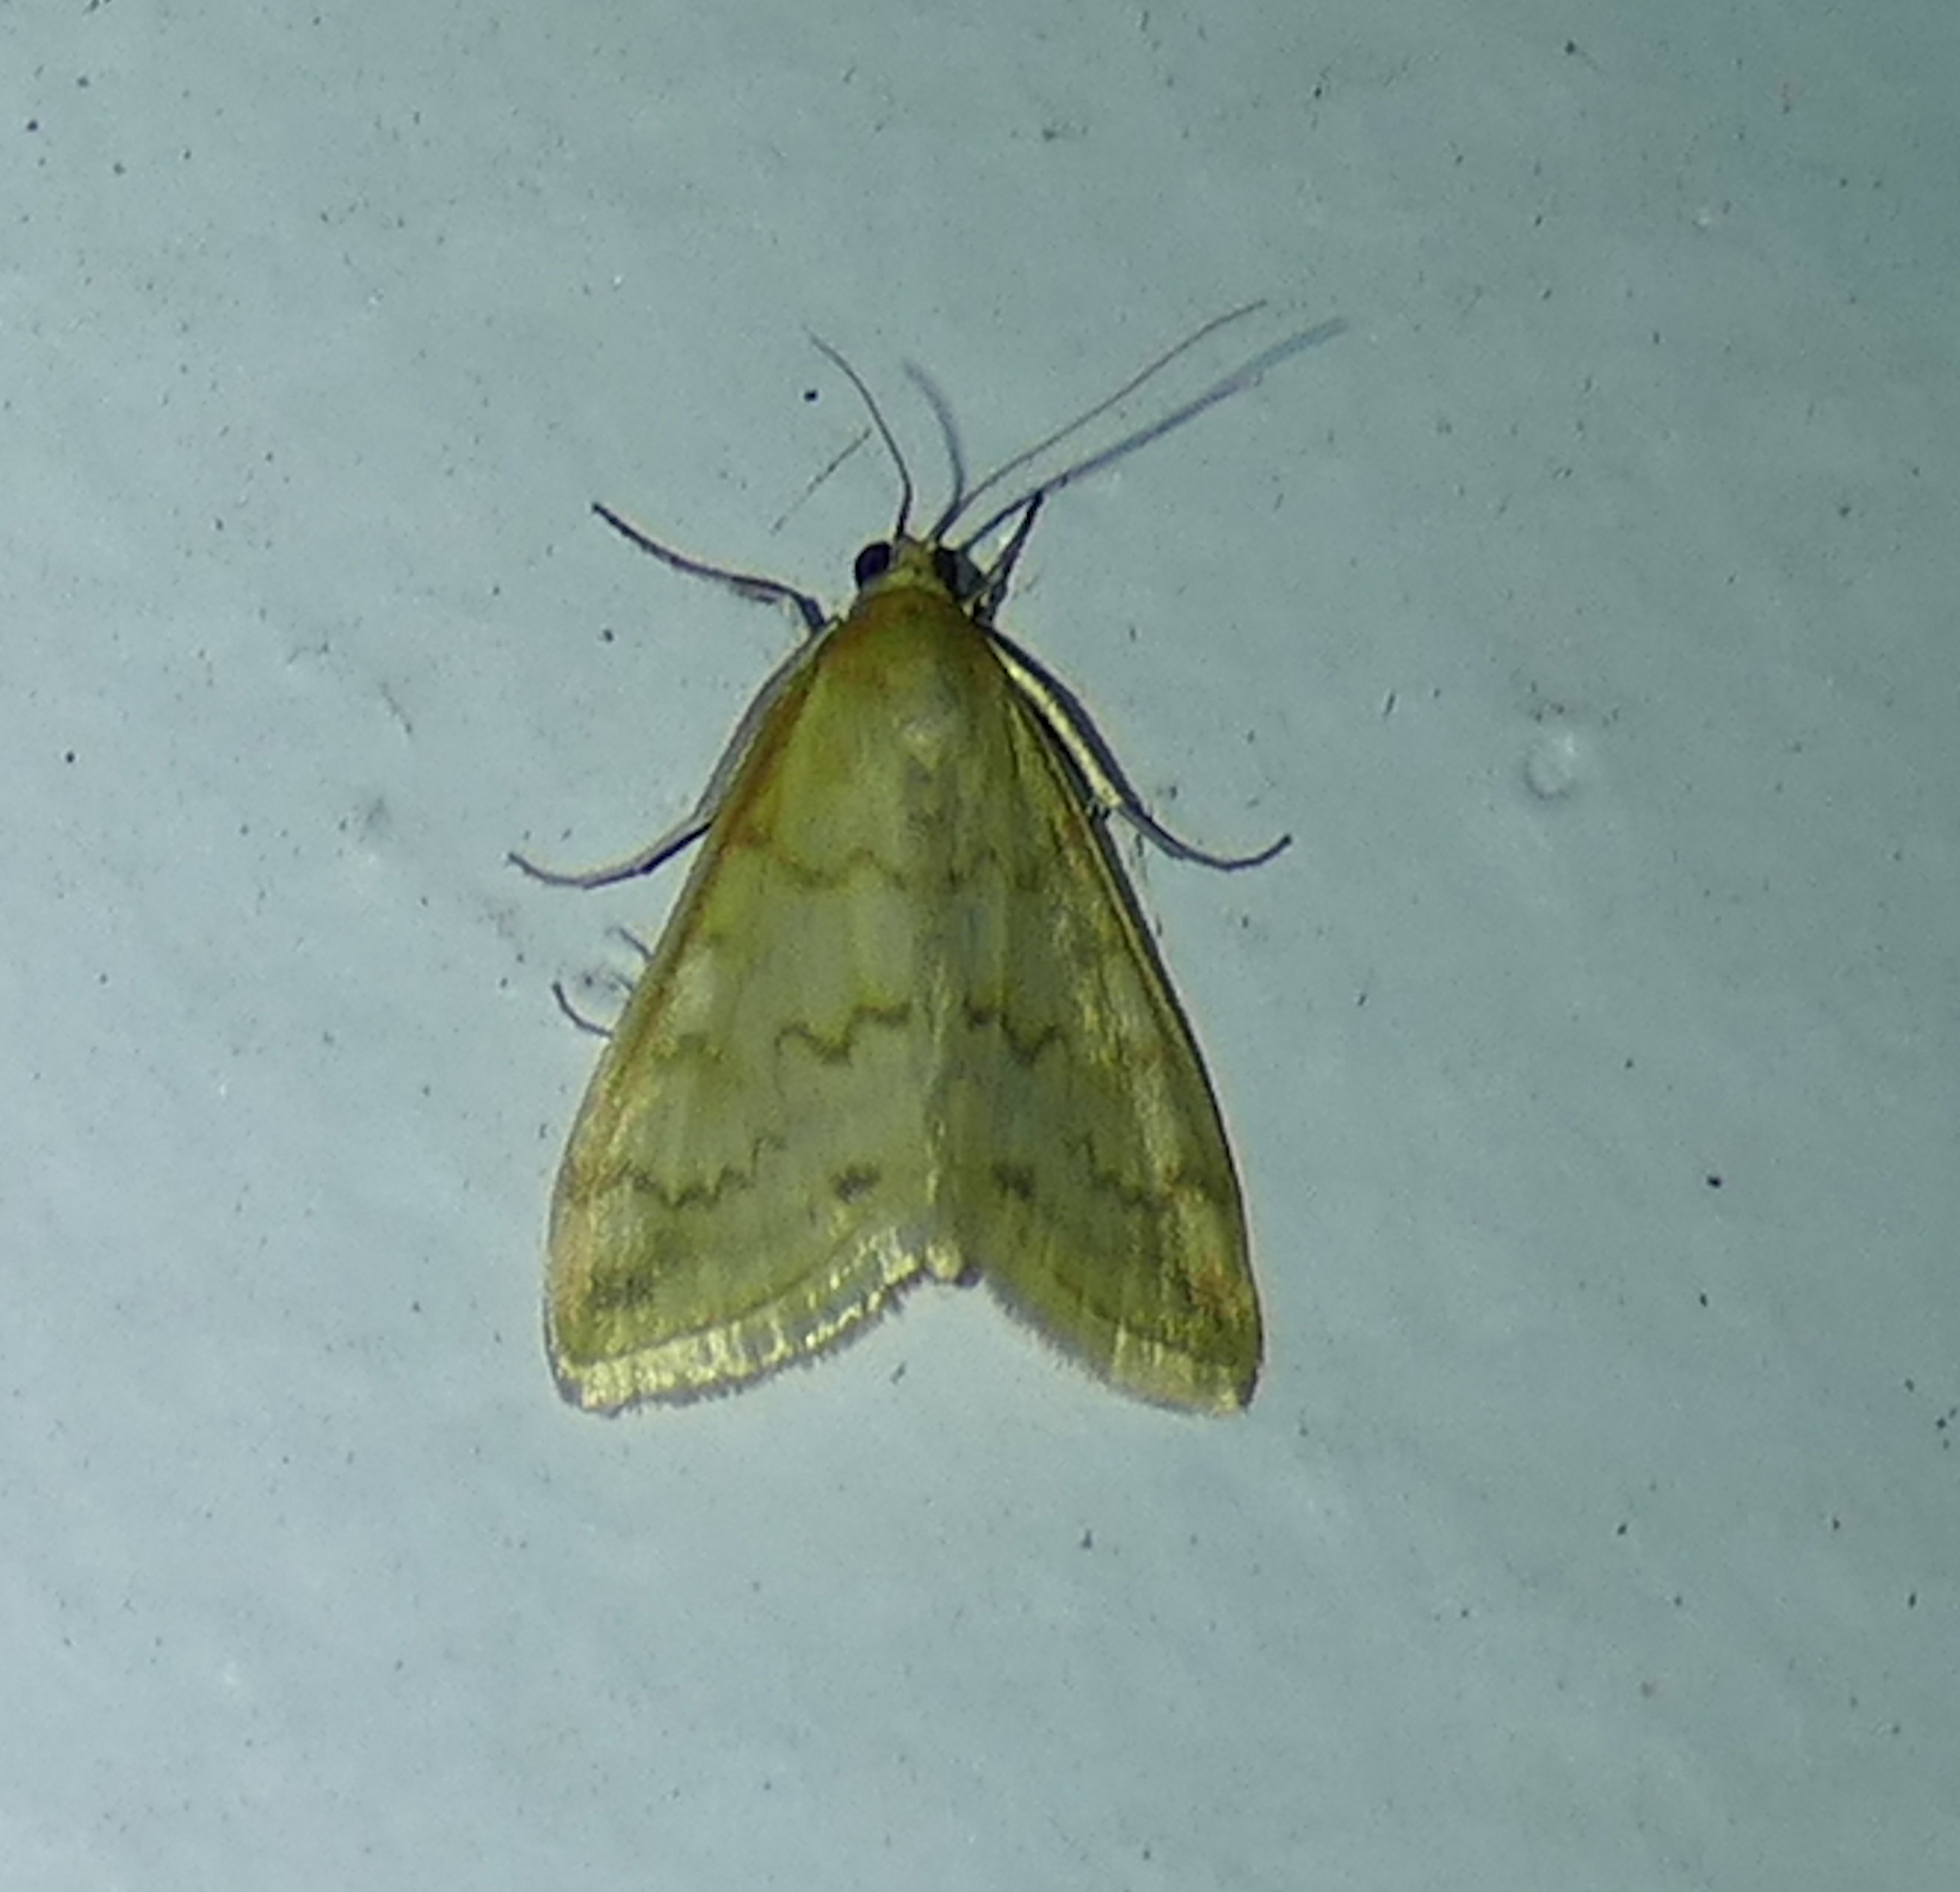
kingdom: Animalia
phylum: Arthropoda
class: Insecta
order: Lepidoptera
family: Crambidae
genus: Hahncappsia
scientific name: Hahncappsia pergilvalis
